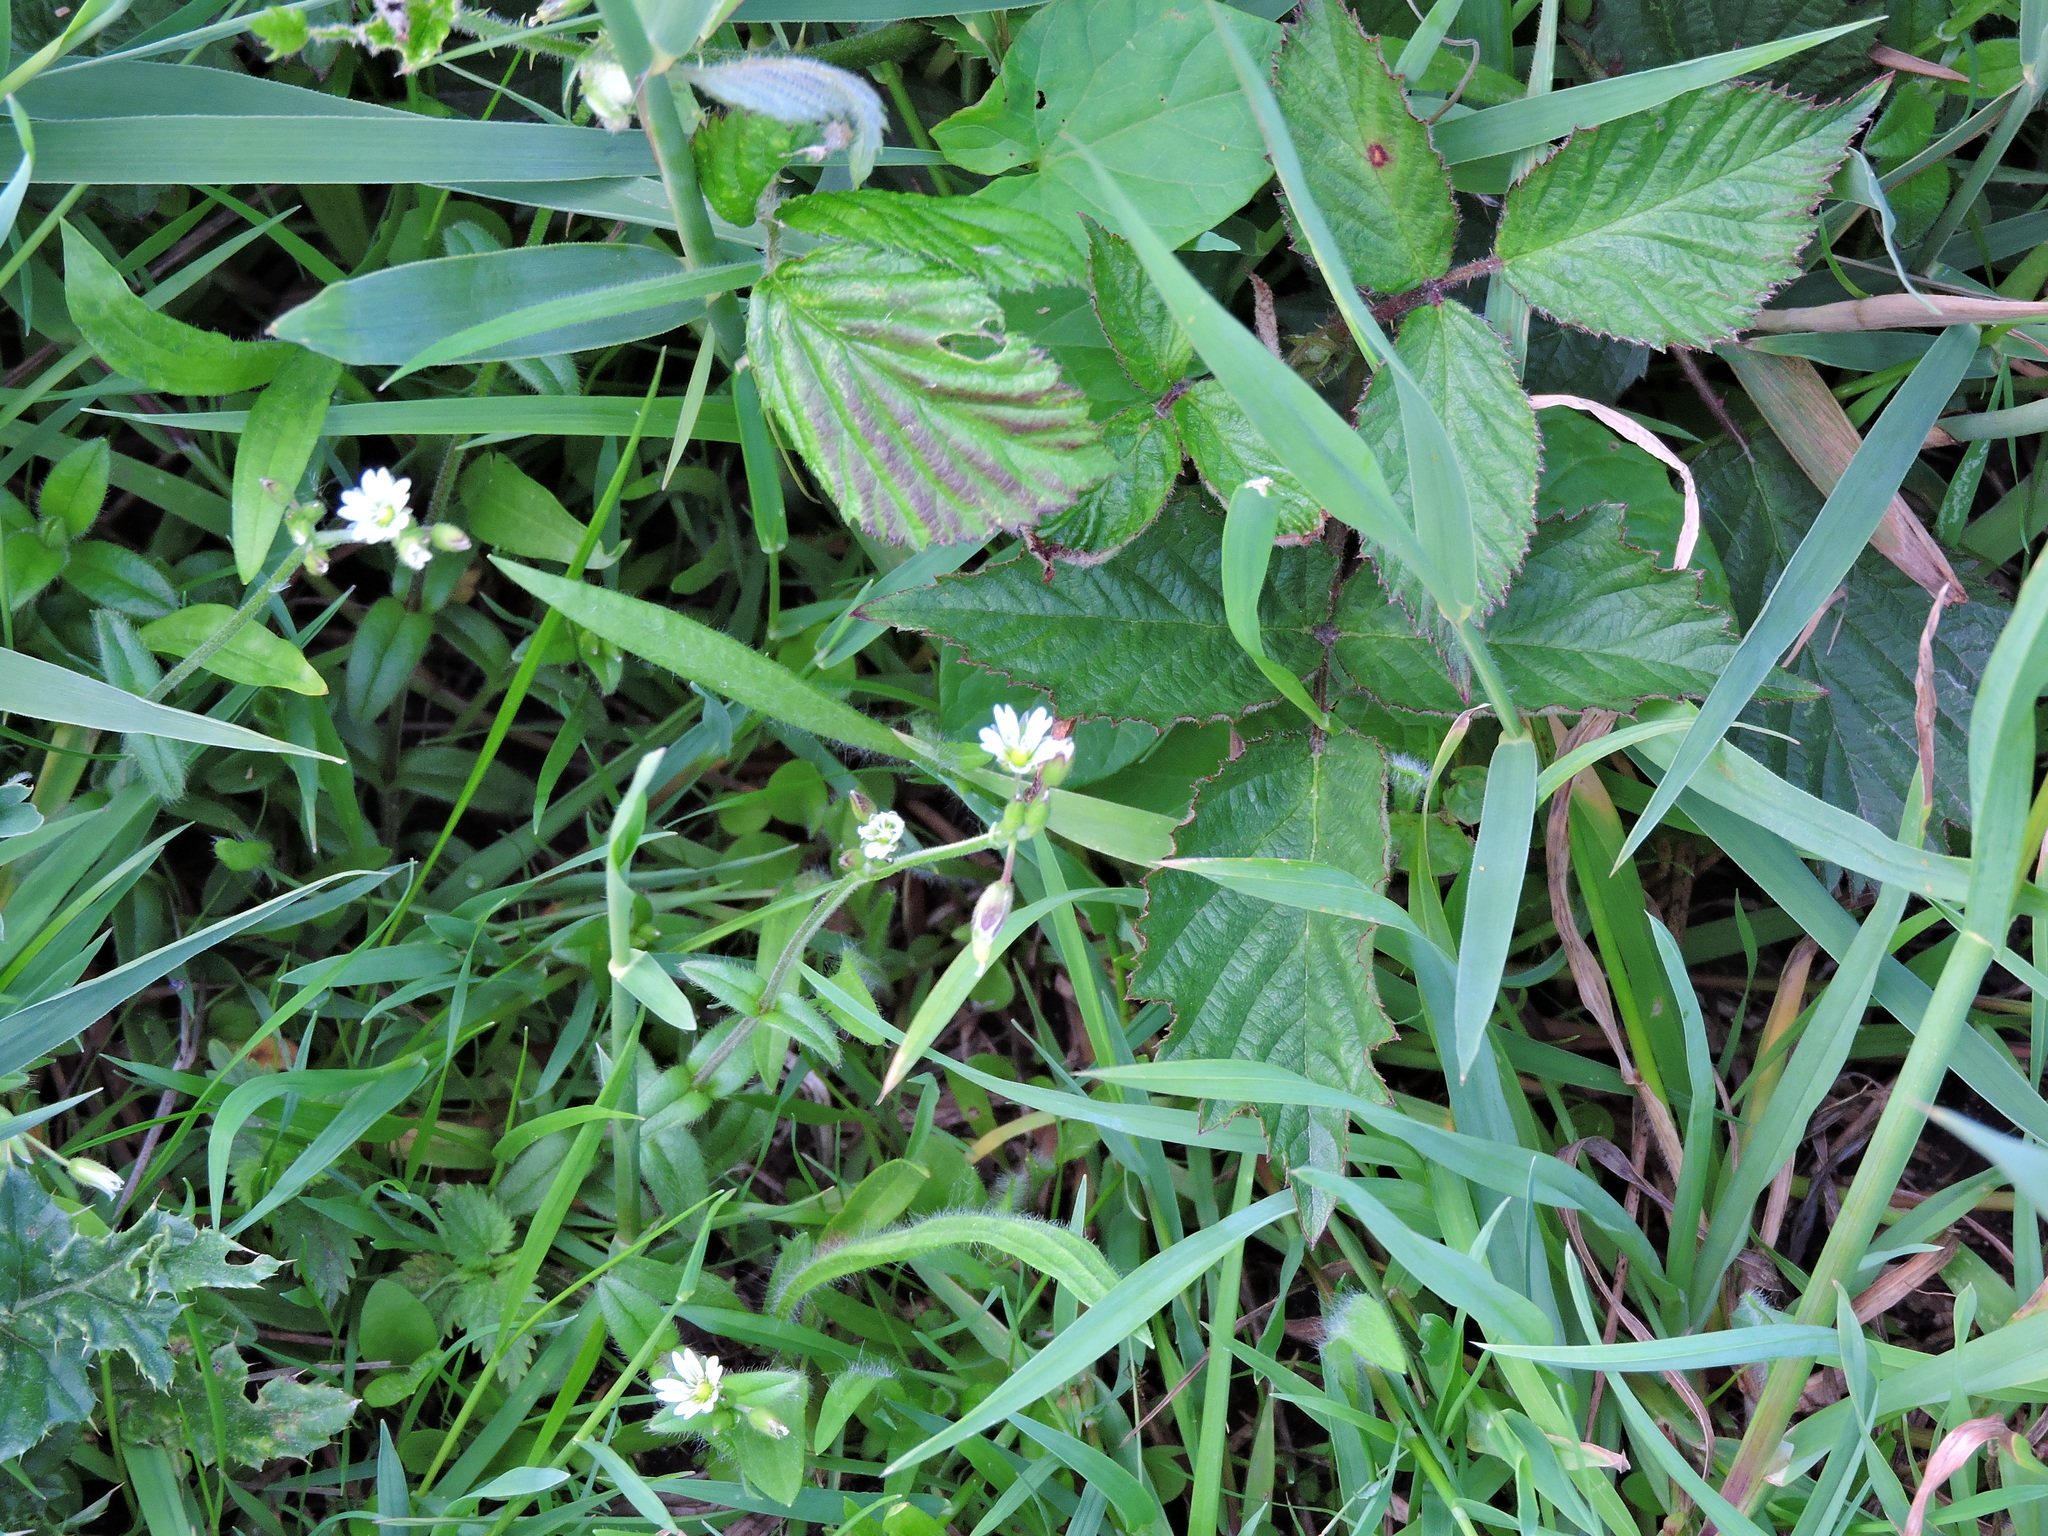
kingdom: Plantae
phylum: Tracheophyta
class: Magnoliopsida
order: Caryophyllales
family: Caryophyllaceae
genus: Cerastium
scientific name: Cerastium fontanum
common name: Common mouse-ear
